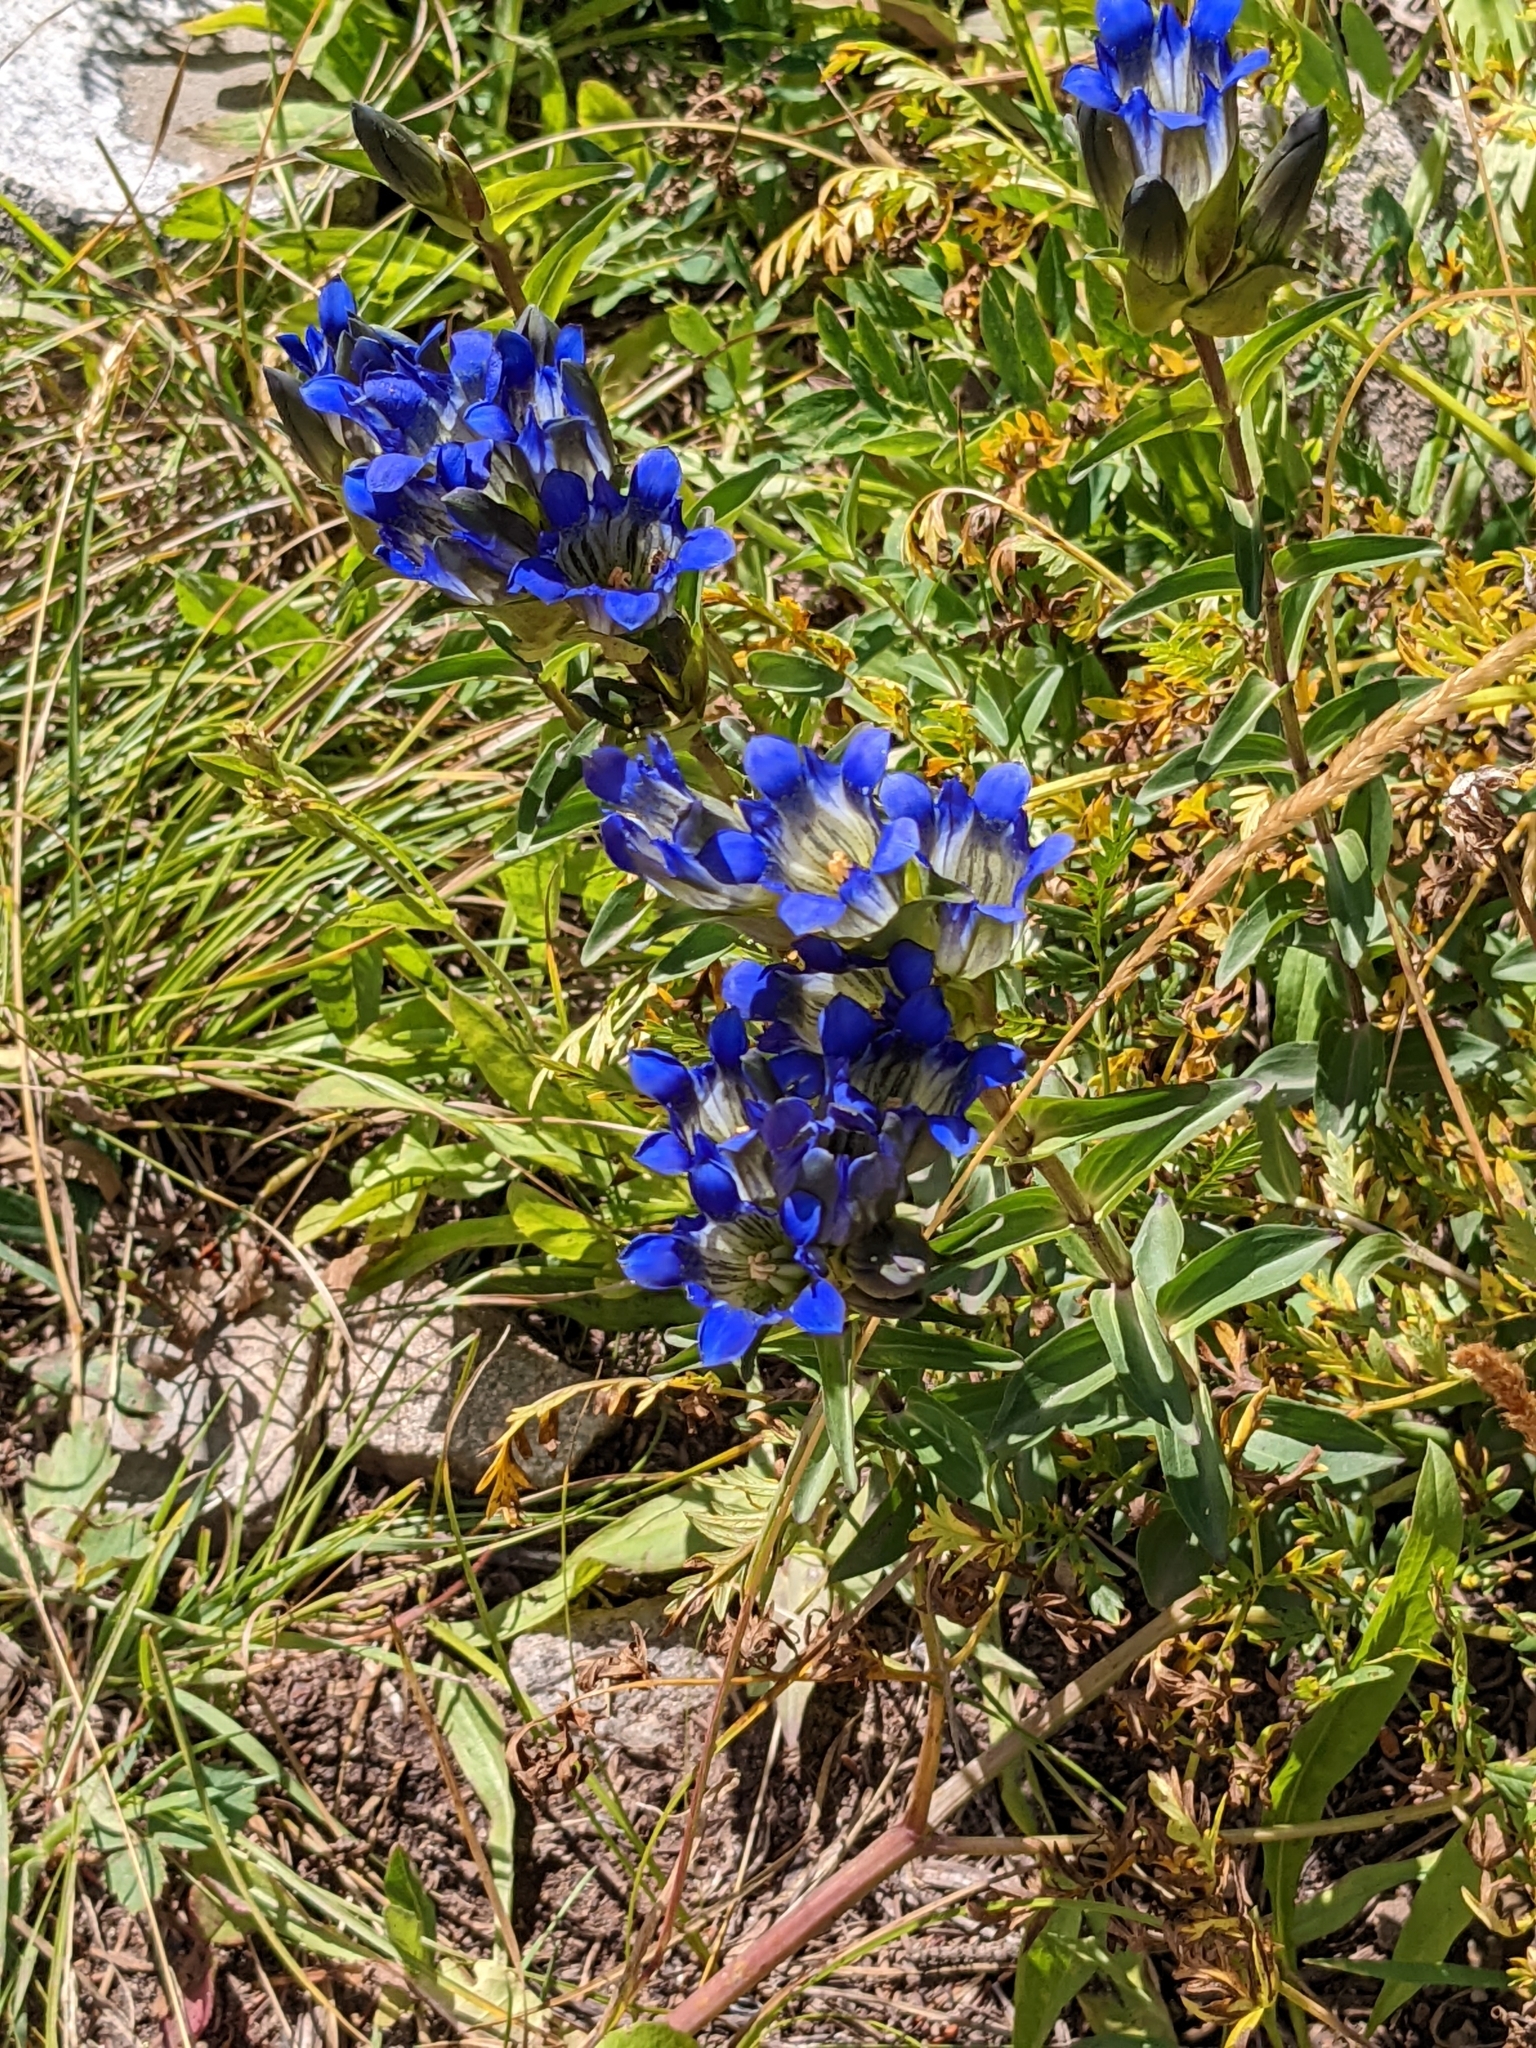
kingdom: Plantae
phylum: Tracheophyta
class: Magnoliopsida
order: Gentianales
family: Gentianaceae
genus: Gentiana
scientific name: Gentiana parryi
